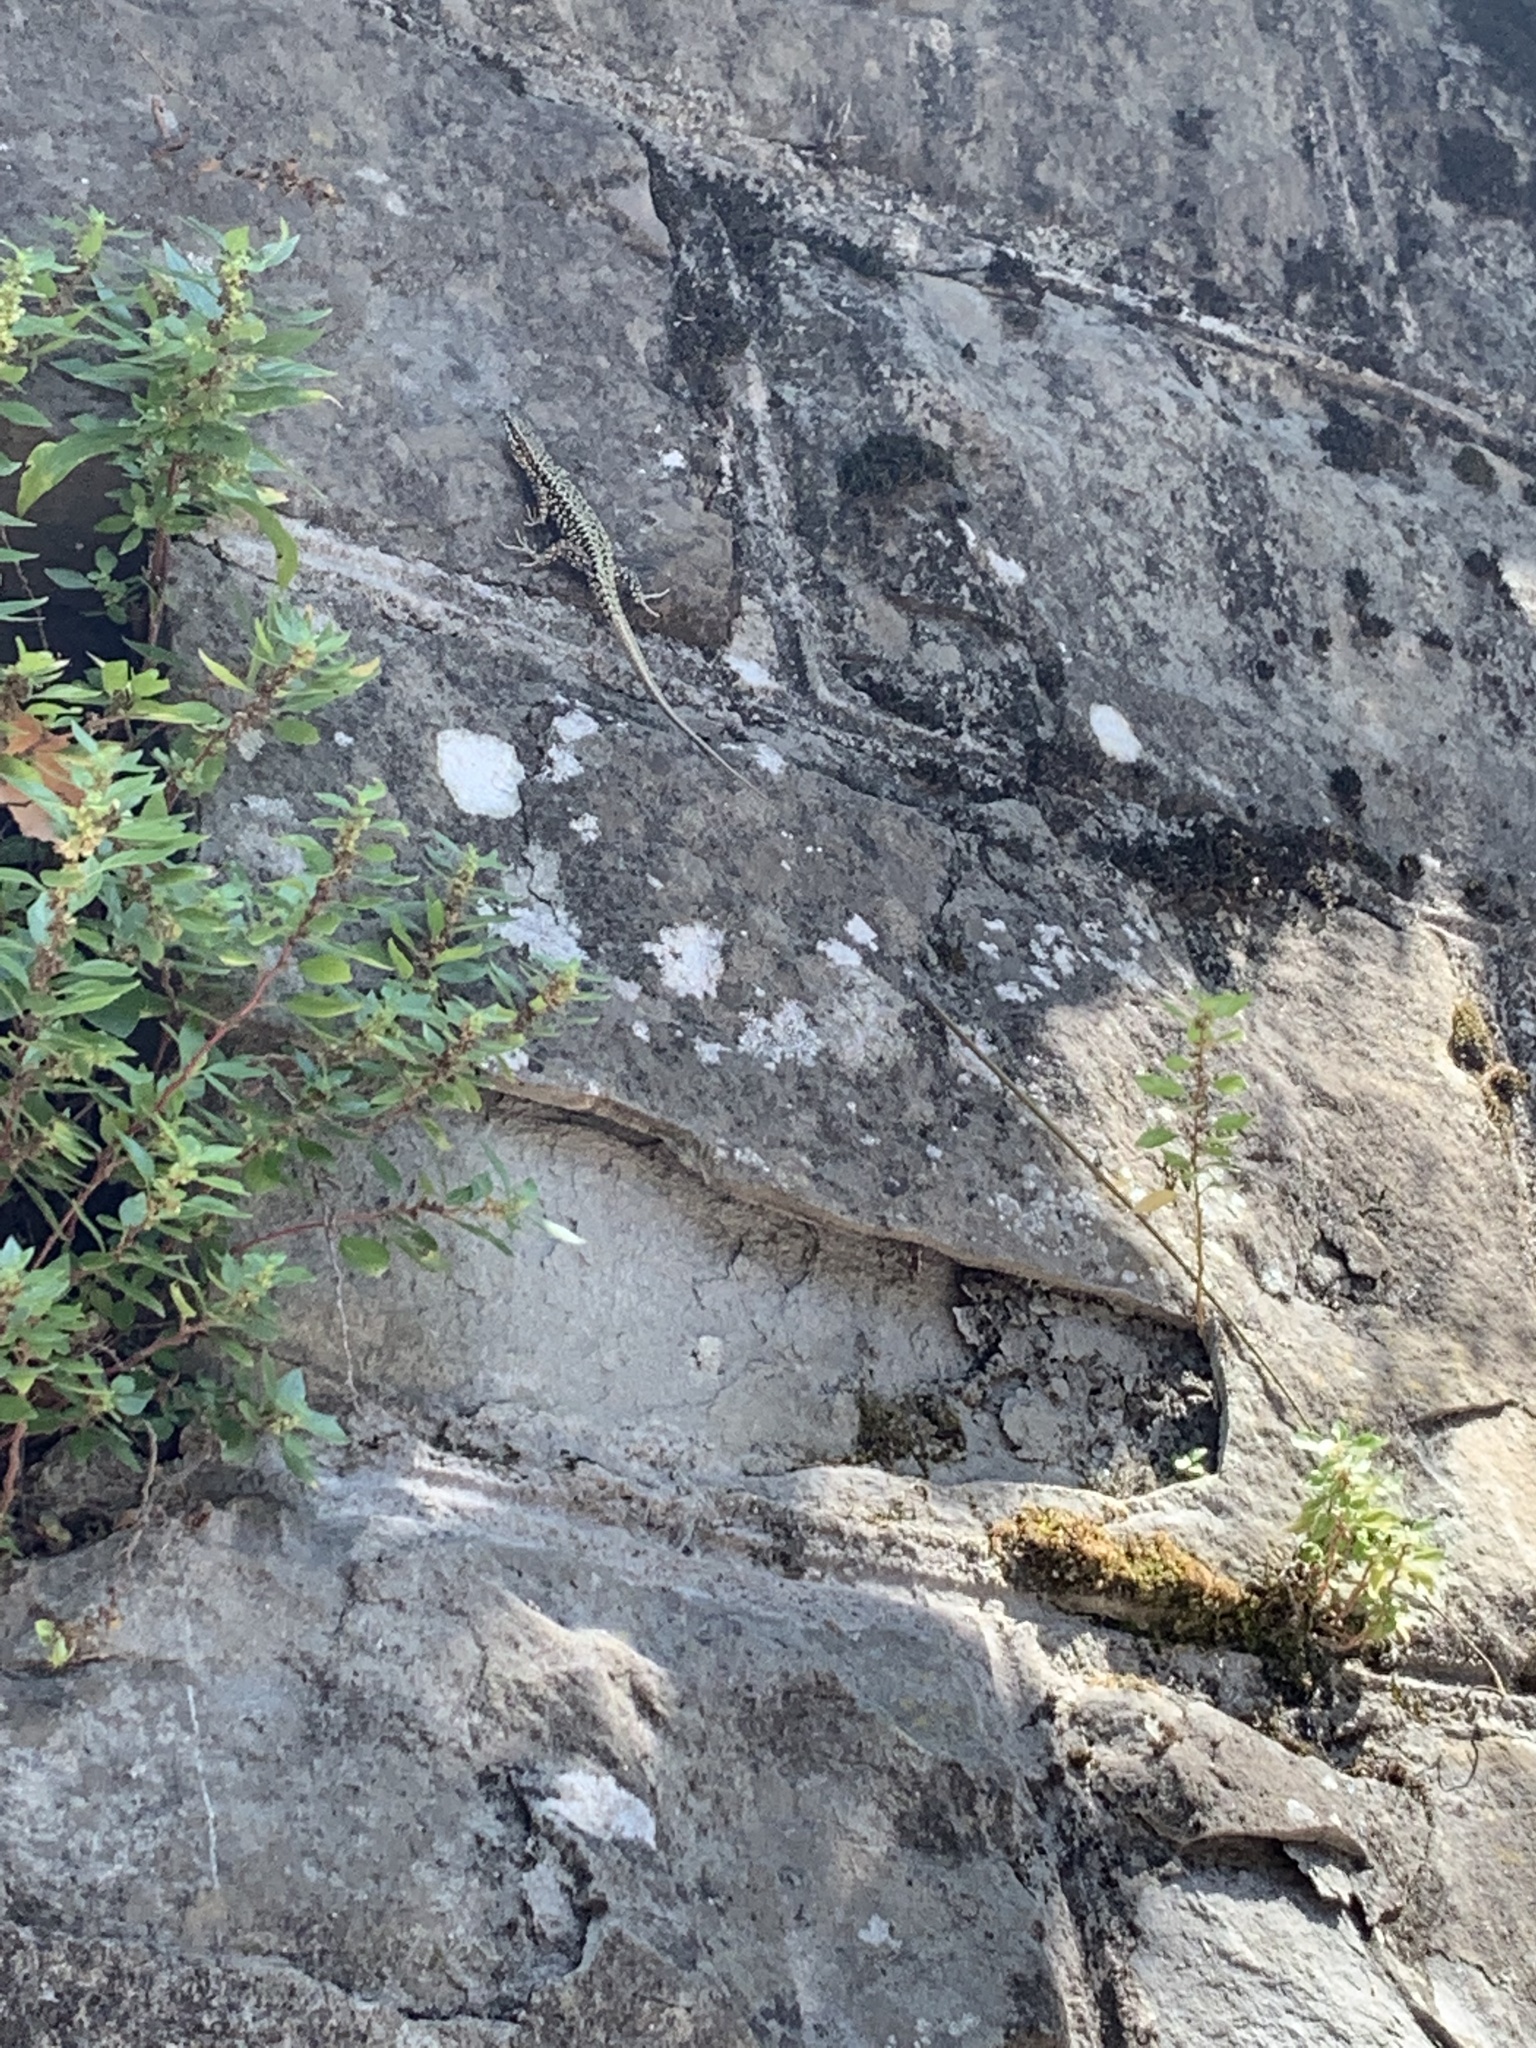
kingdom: Animalia
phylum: Chordata
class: Squamata
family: Lacertidae
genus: Podarcis
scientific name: Podarcis muralis
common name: Common wall lizard
